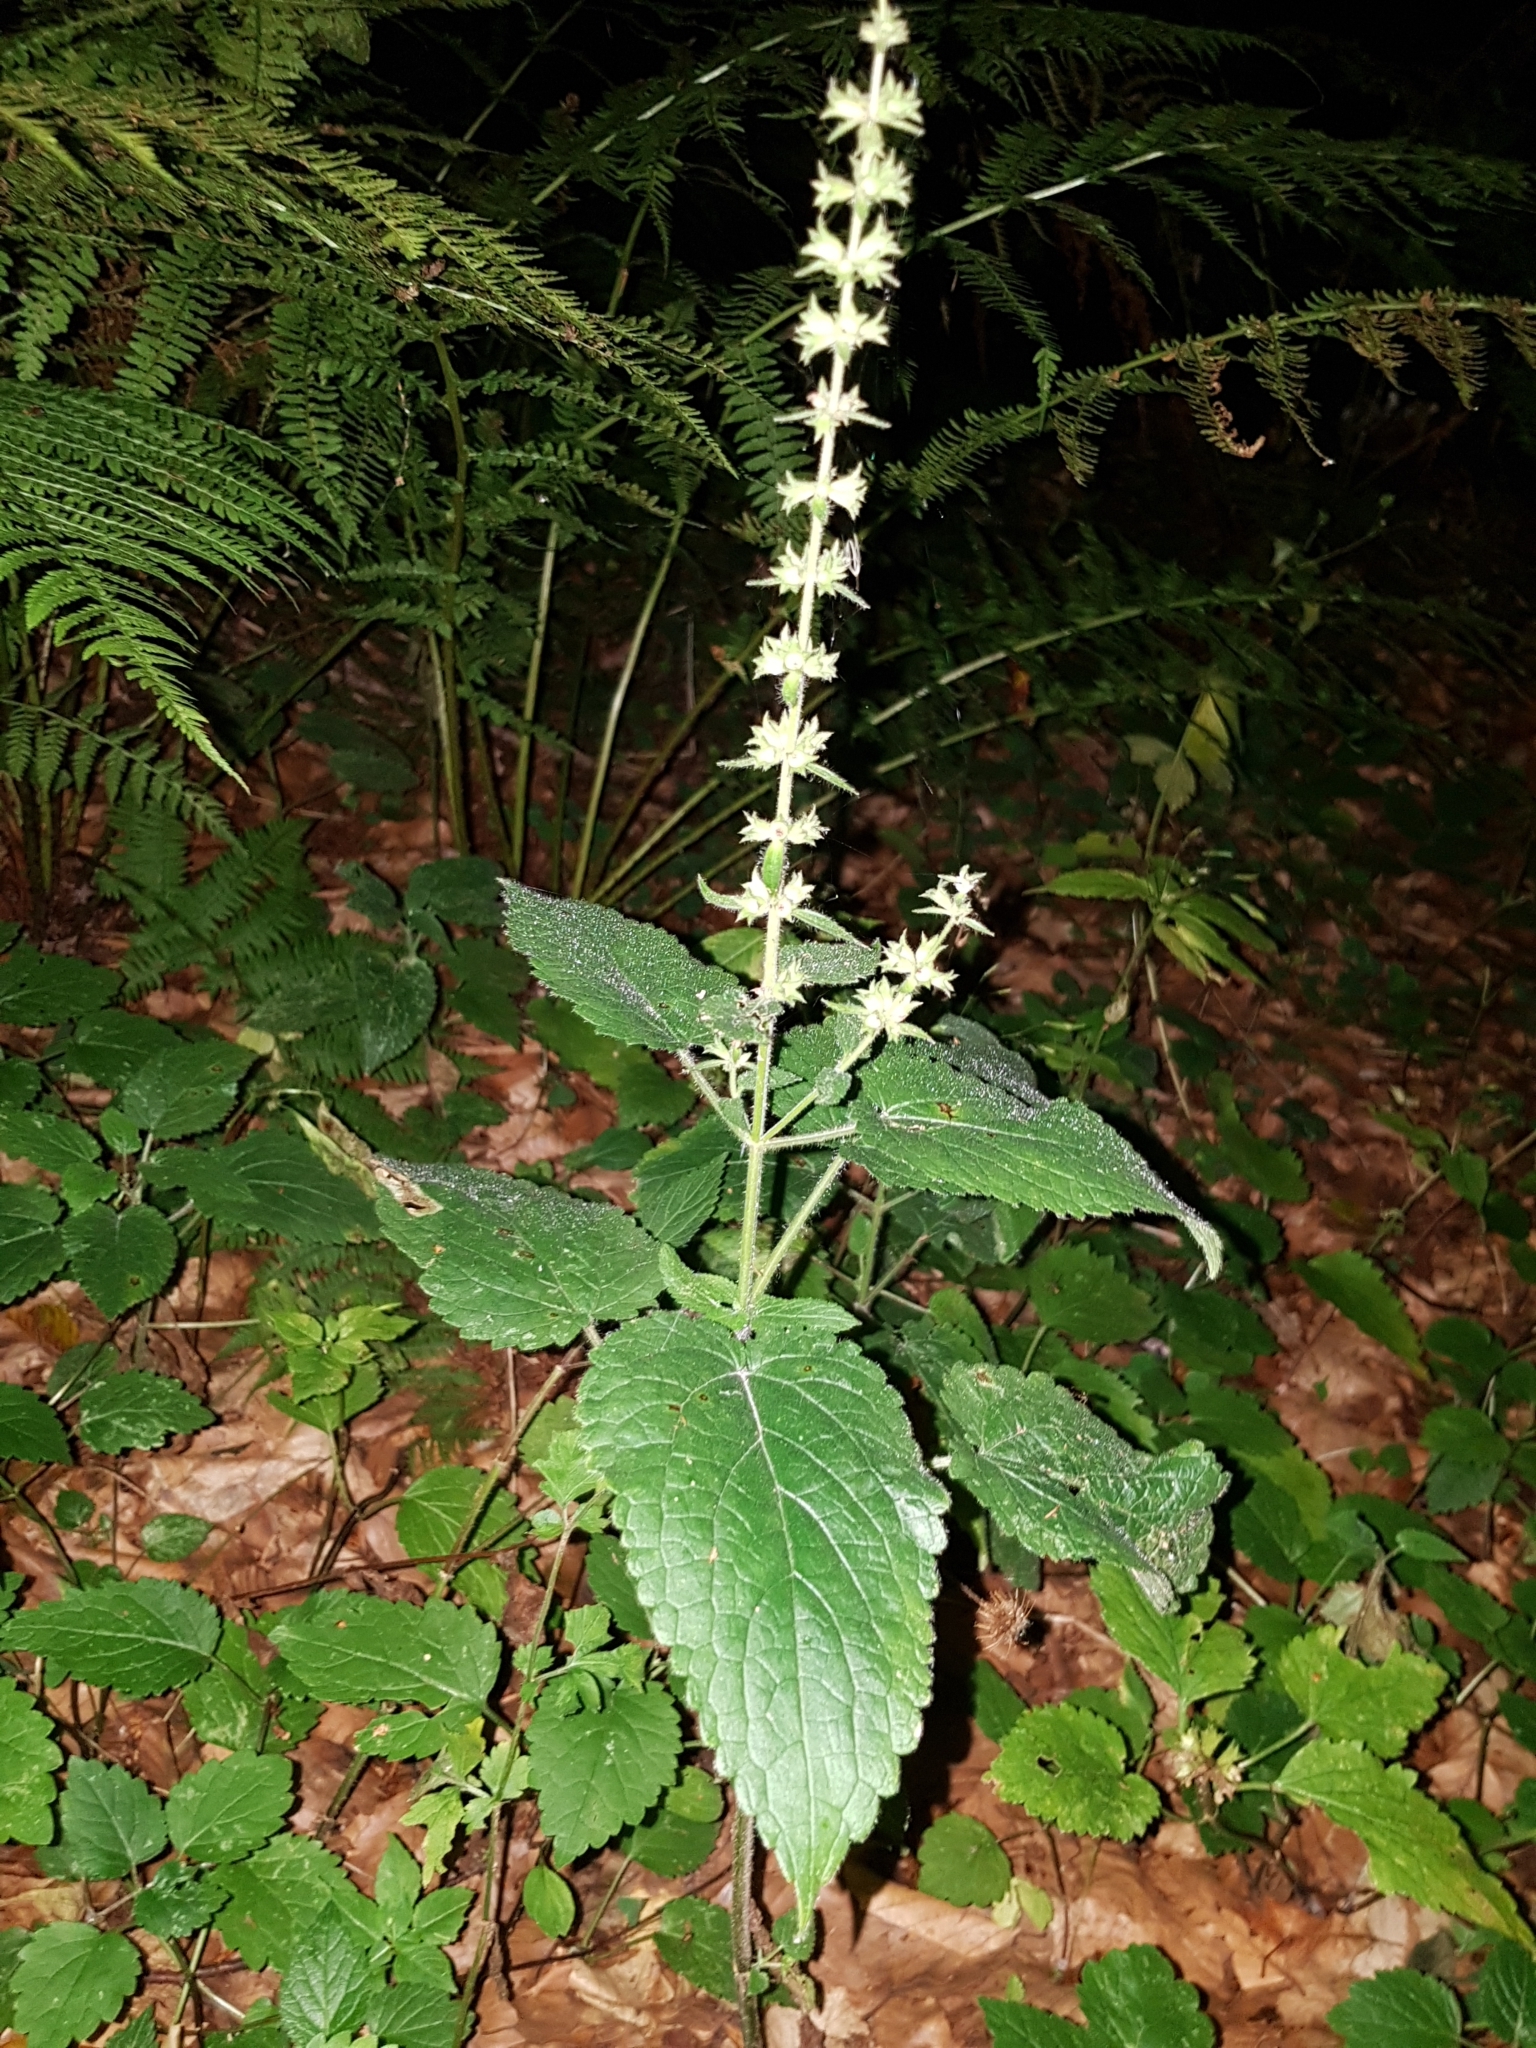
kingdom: Plantae
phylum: Tracheophyta
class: Magnoliopsida
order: Lamiales
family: Lamiaceae
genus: Stachys
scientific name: Stachys sylvatica
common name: Hedge woundwort
